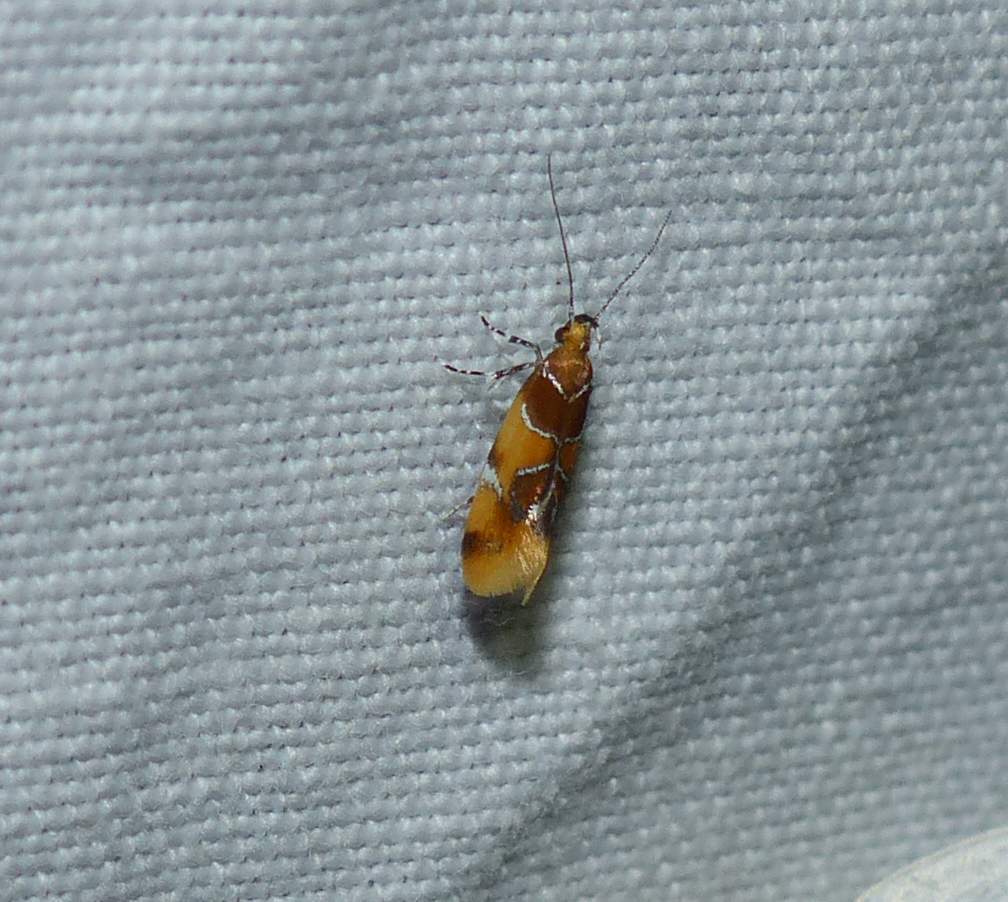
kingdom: Animalia
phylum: Arthropoda
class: Insecta
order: Lepidoptera
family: Oecophoridae
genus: Callima
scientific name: Callima argenticinctella
